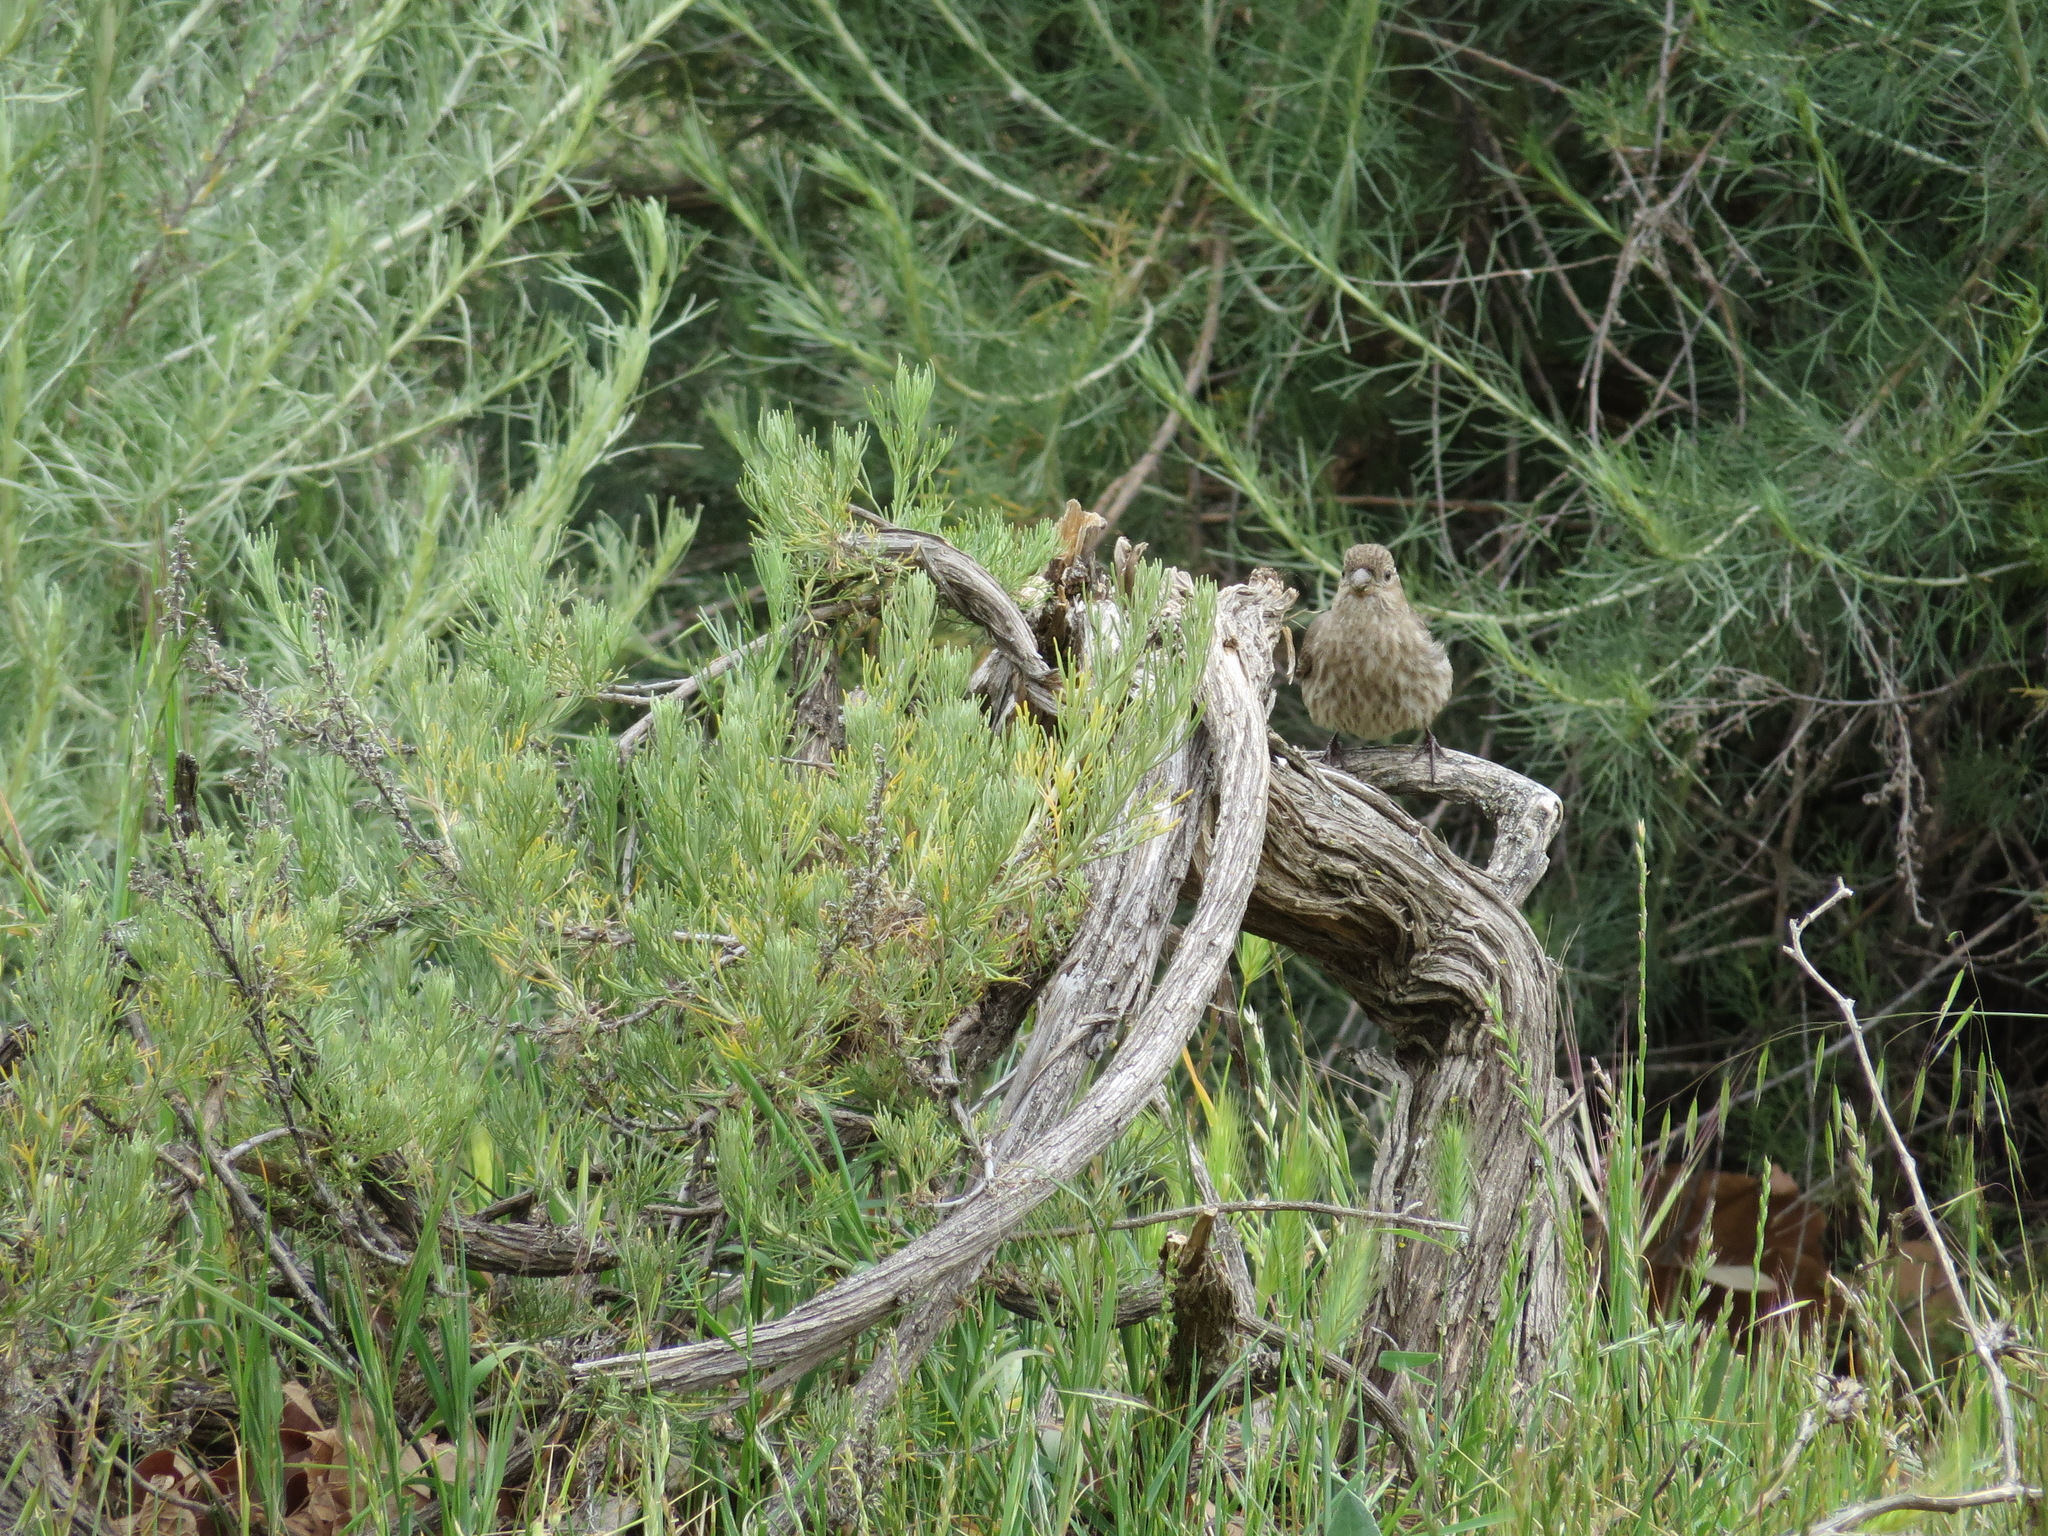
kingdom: Animalia
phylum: Chordata
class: Aves
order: Passeriformes
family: Fringillidae
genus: Haemorhous
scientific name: Haemorhous mexicanus
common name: House finch
